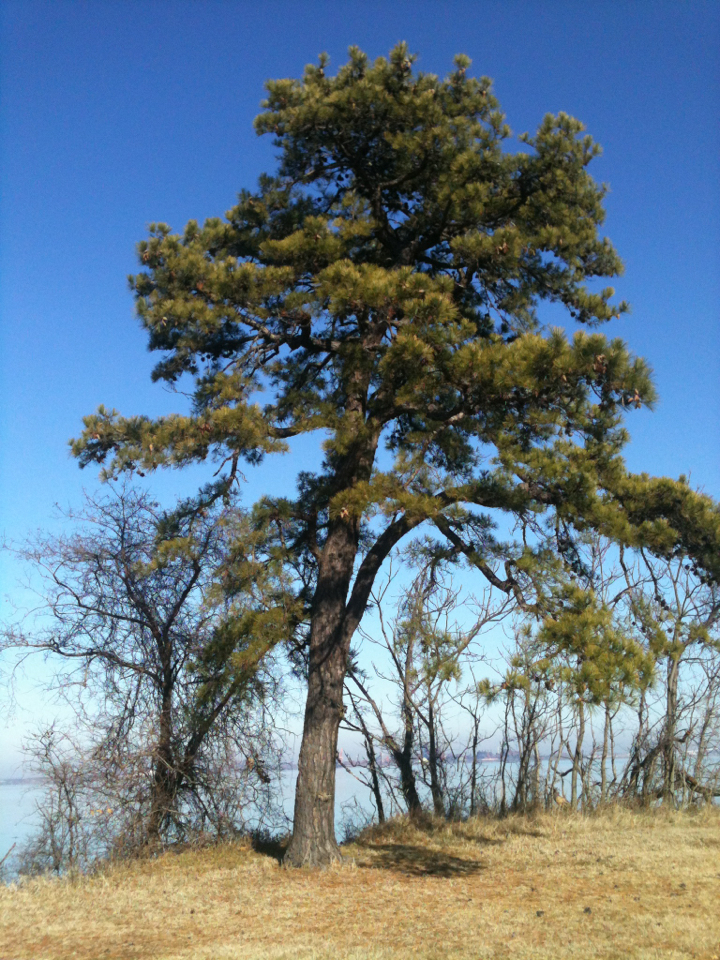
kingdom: Plantae
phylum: Tracheophyta
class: Pinopsida
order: Pinales
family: Pinaceae
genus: Pinus
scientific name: Pinus rigida
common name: Pitch pine
